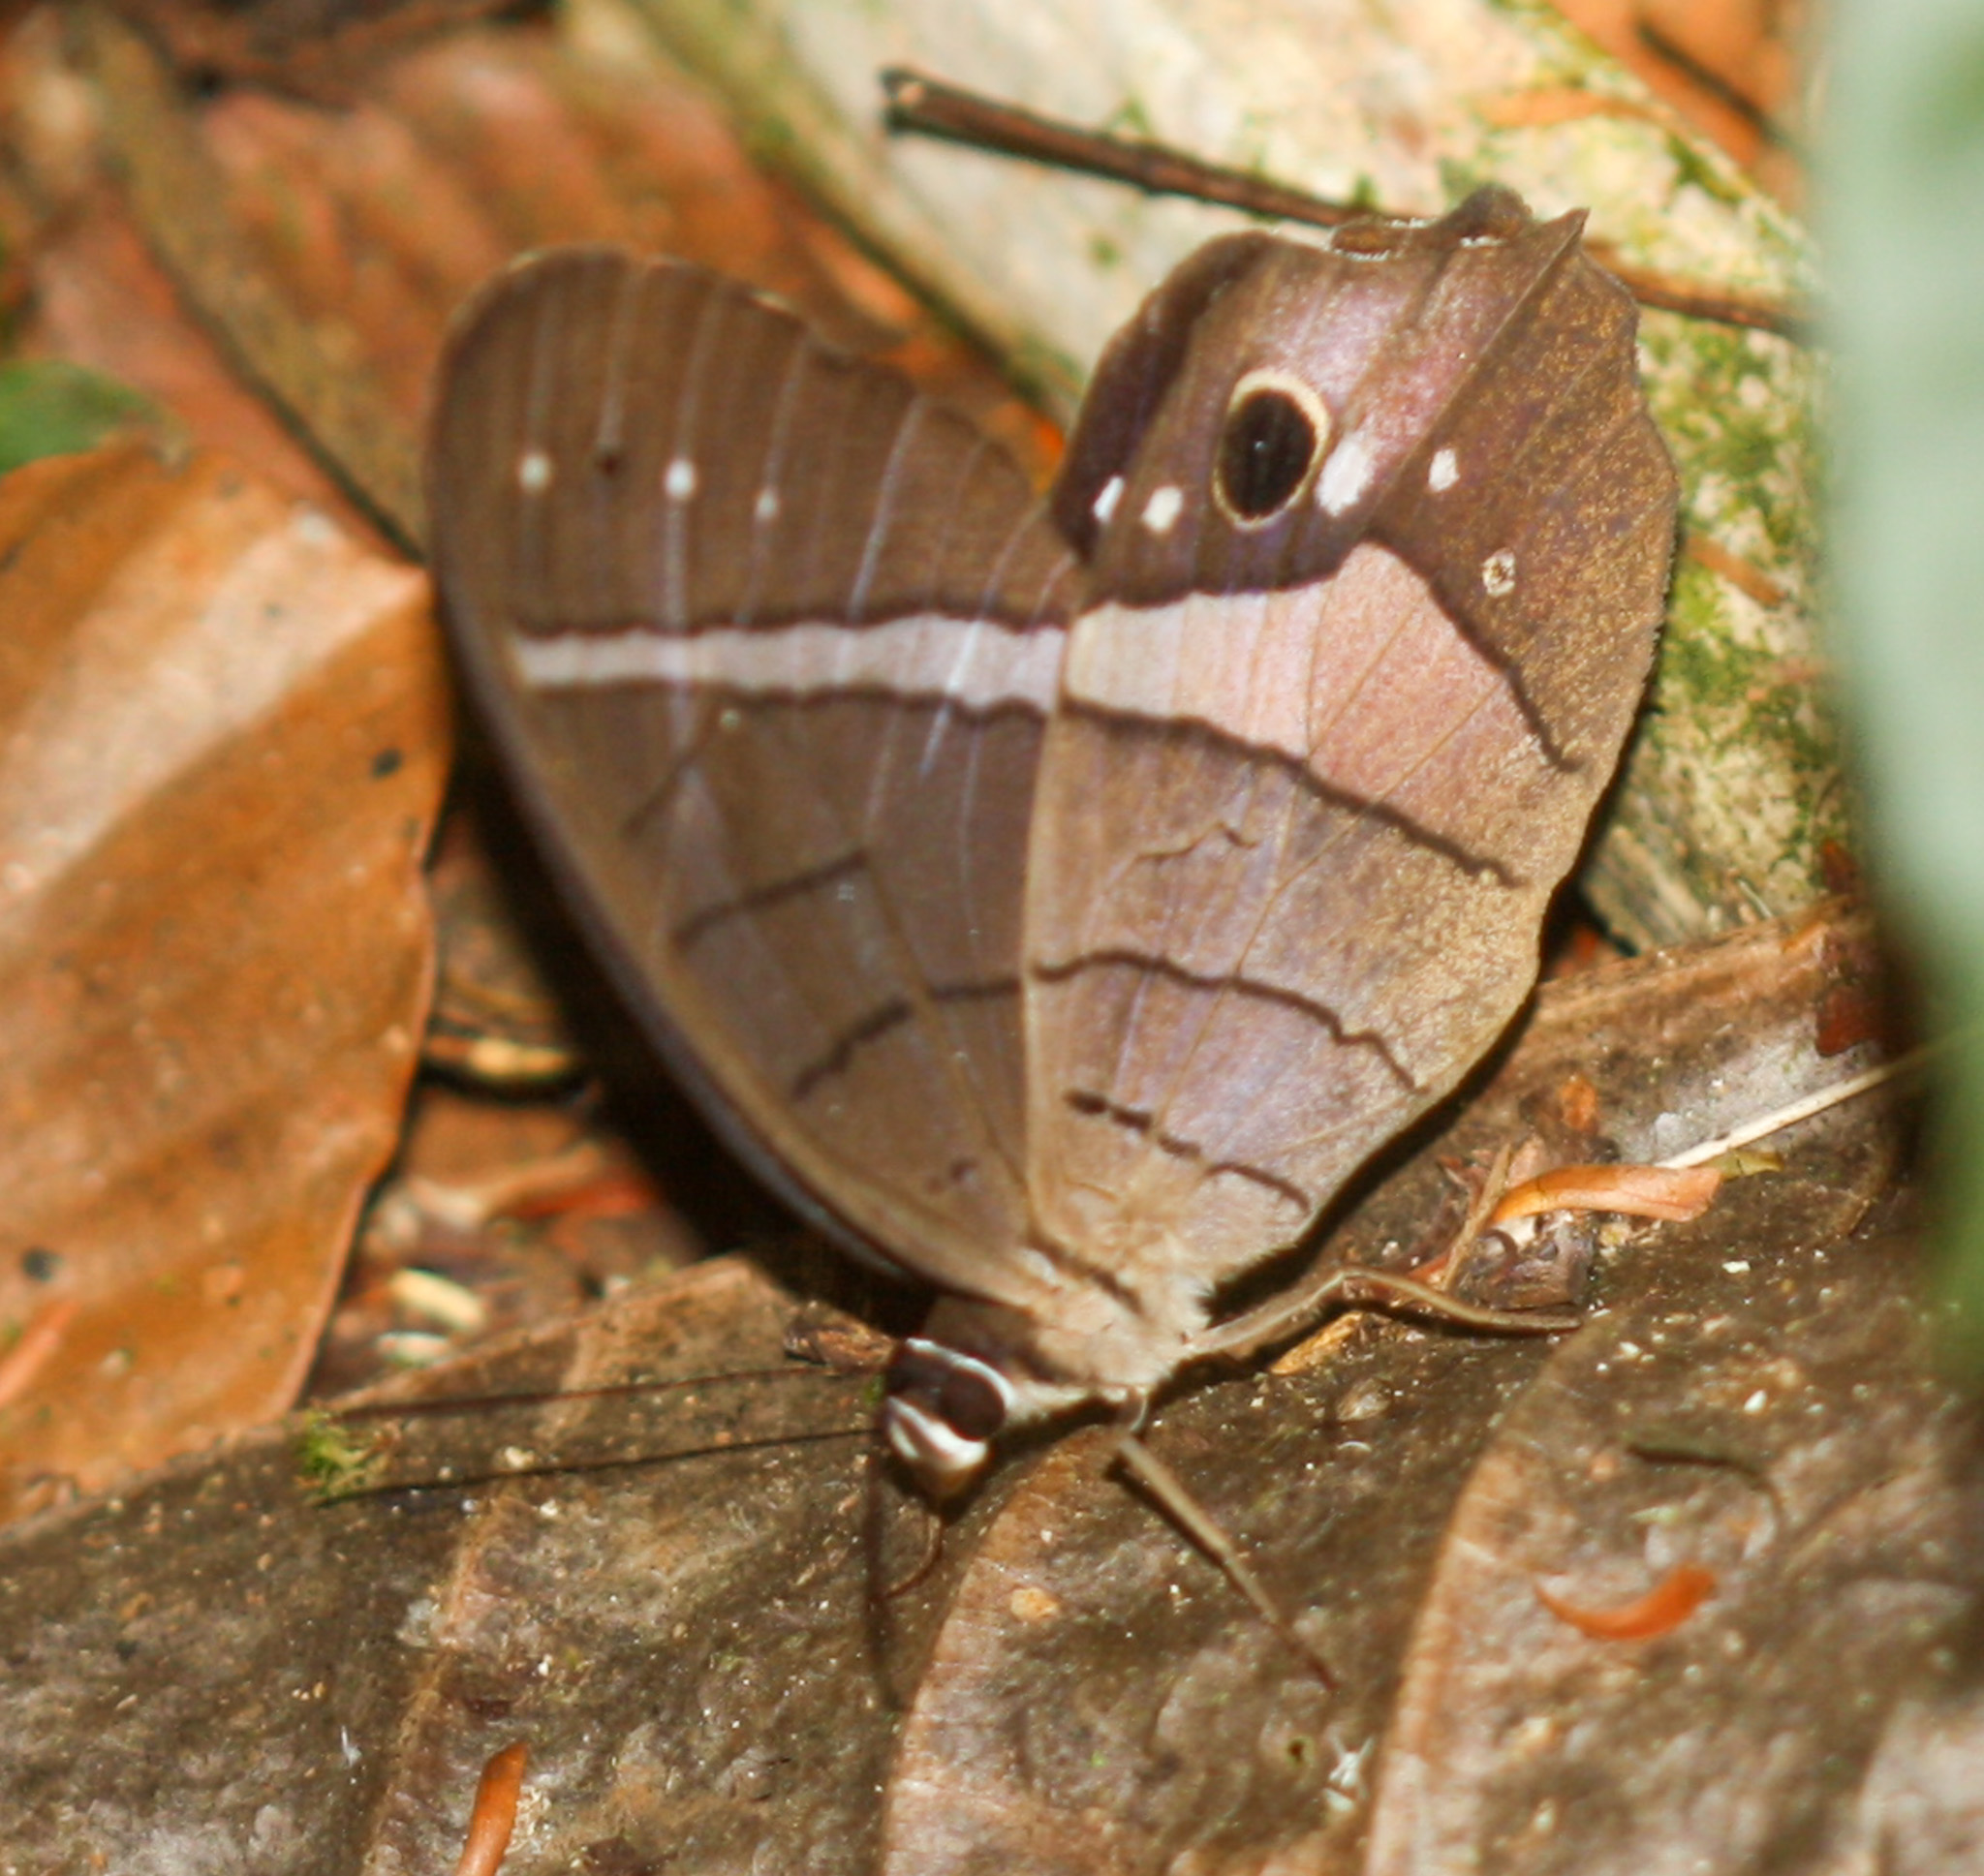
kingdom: Animalia
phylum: Arthropoda
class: Insecta
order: Lepidoptera
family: Nymphalidae
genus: Pierella
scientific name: Pierella helvina
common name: Red-washed satyr
